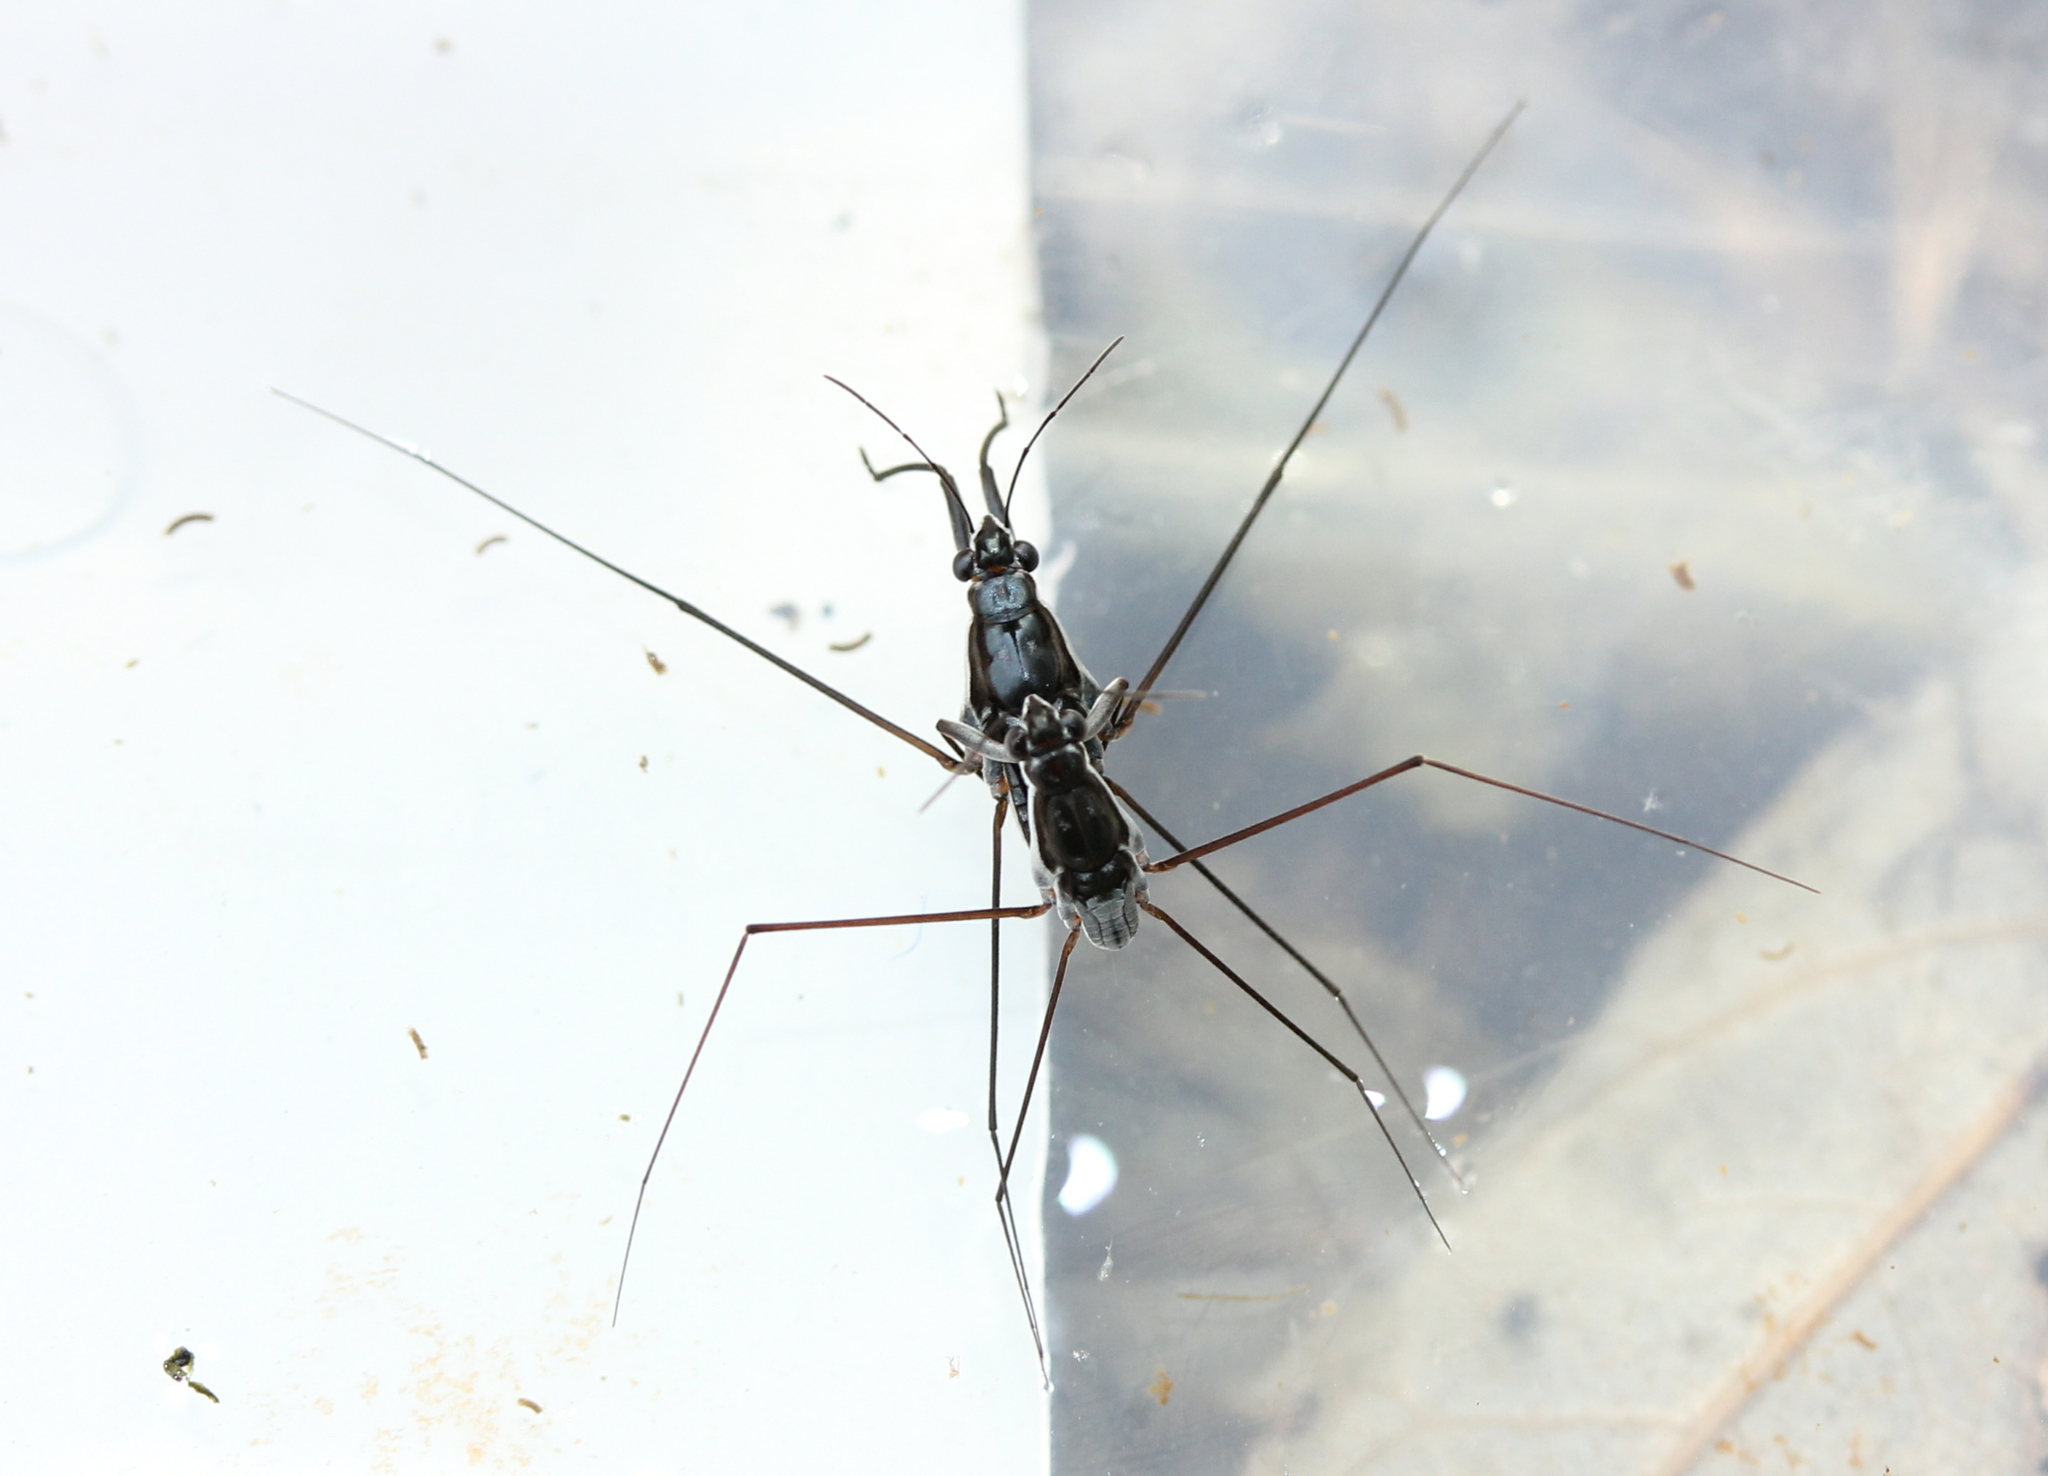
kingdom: Animalia
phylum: Arthropoda
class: Insecta
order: Hemiptera
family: Gerridae
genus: Neogerris
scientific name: Neogerris hesione
